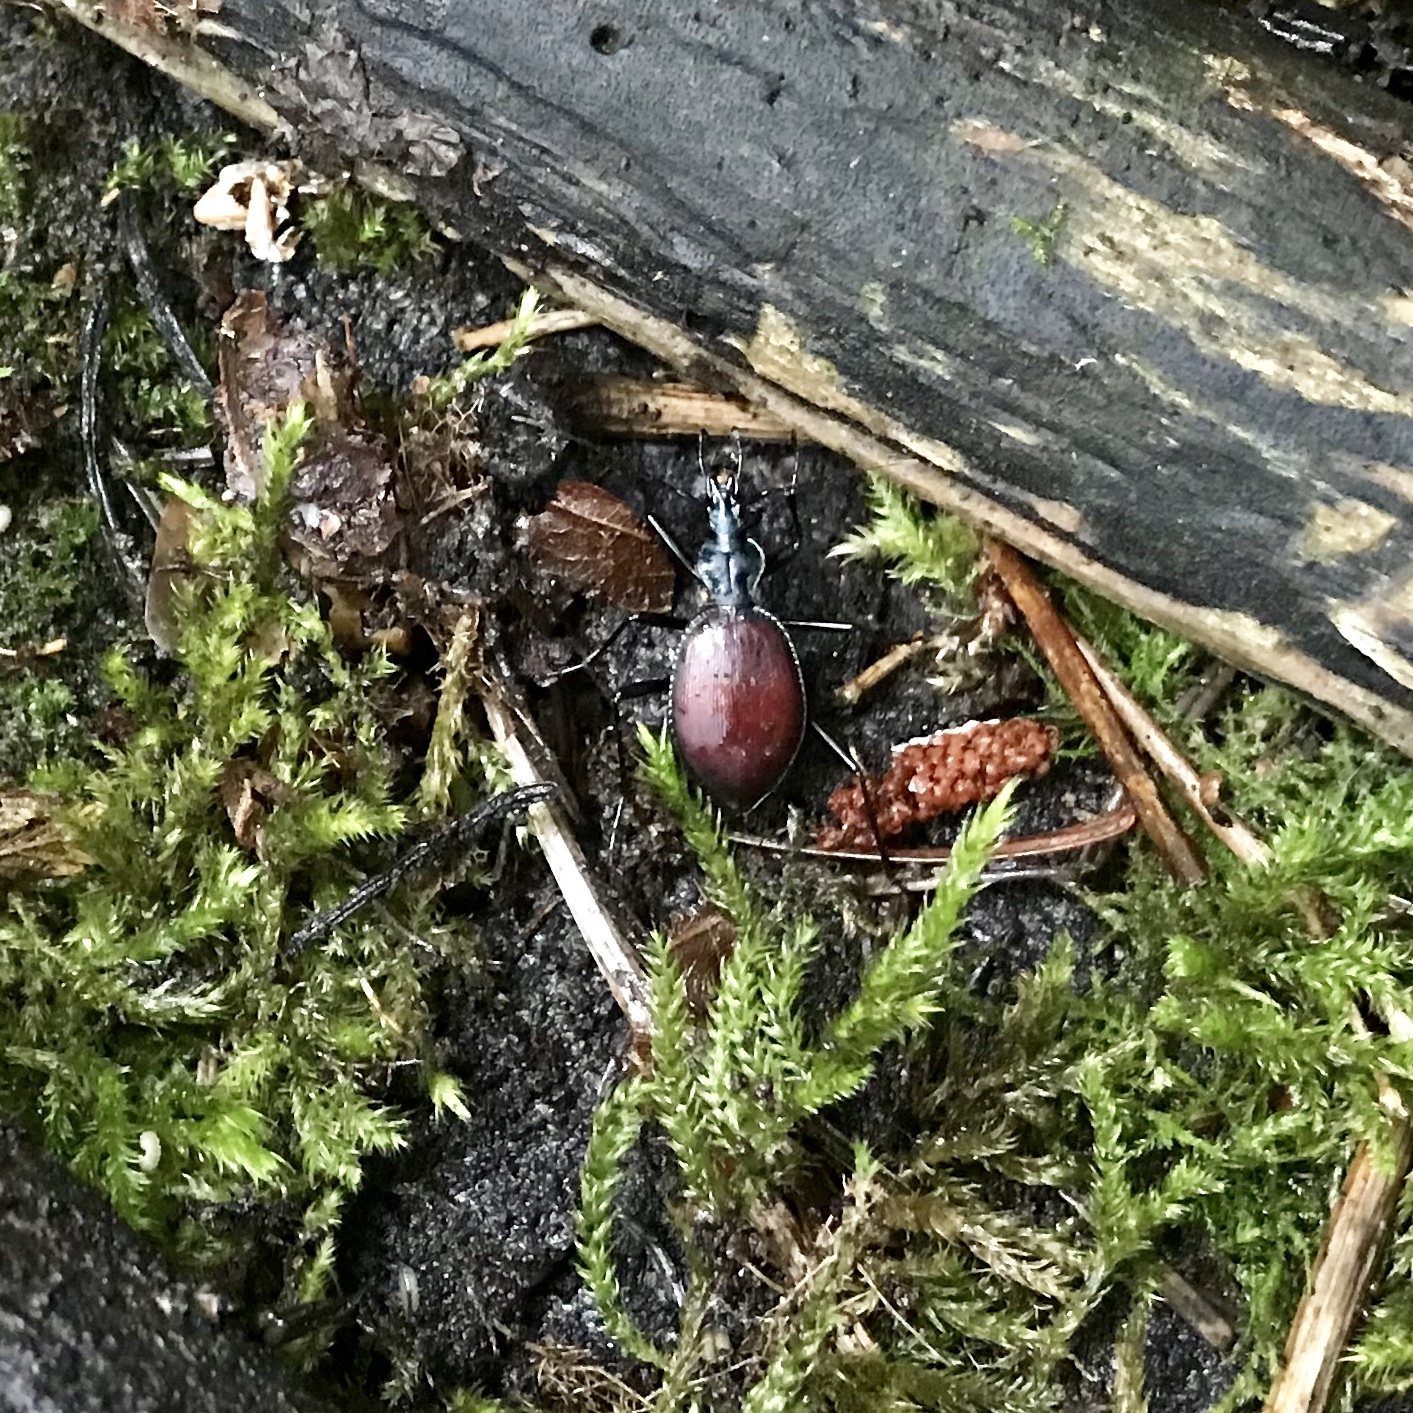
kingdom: Animalia
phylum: Arthropoda
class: Insecta
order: Coleoptera
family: Carabidae
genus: Scaphinotus
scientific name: Scaphinotus angusticollis
